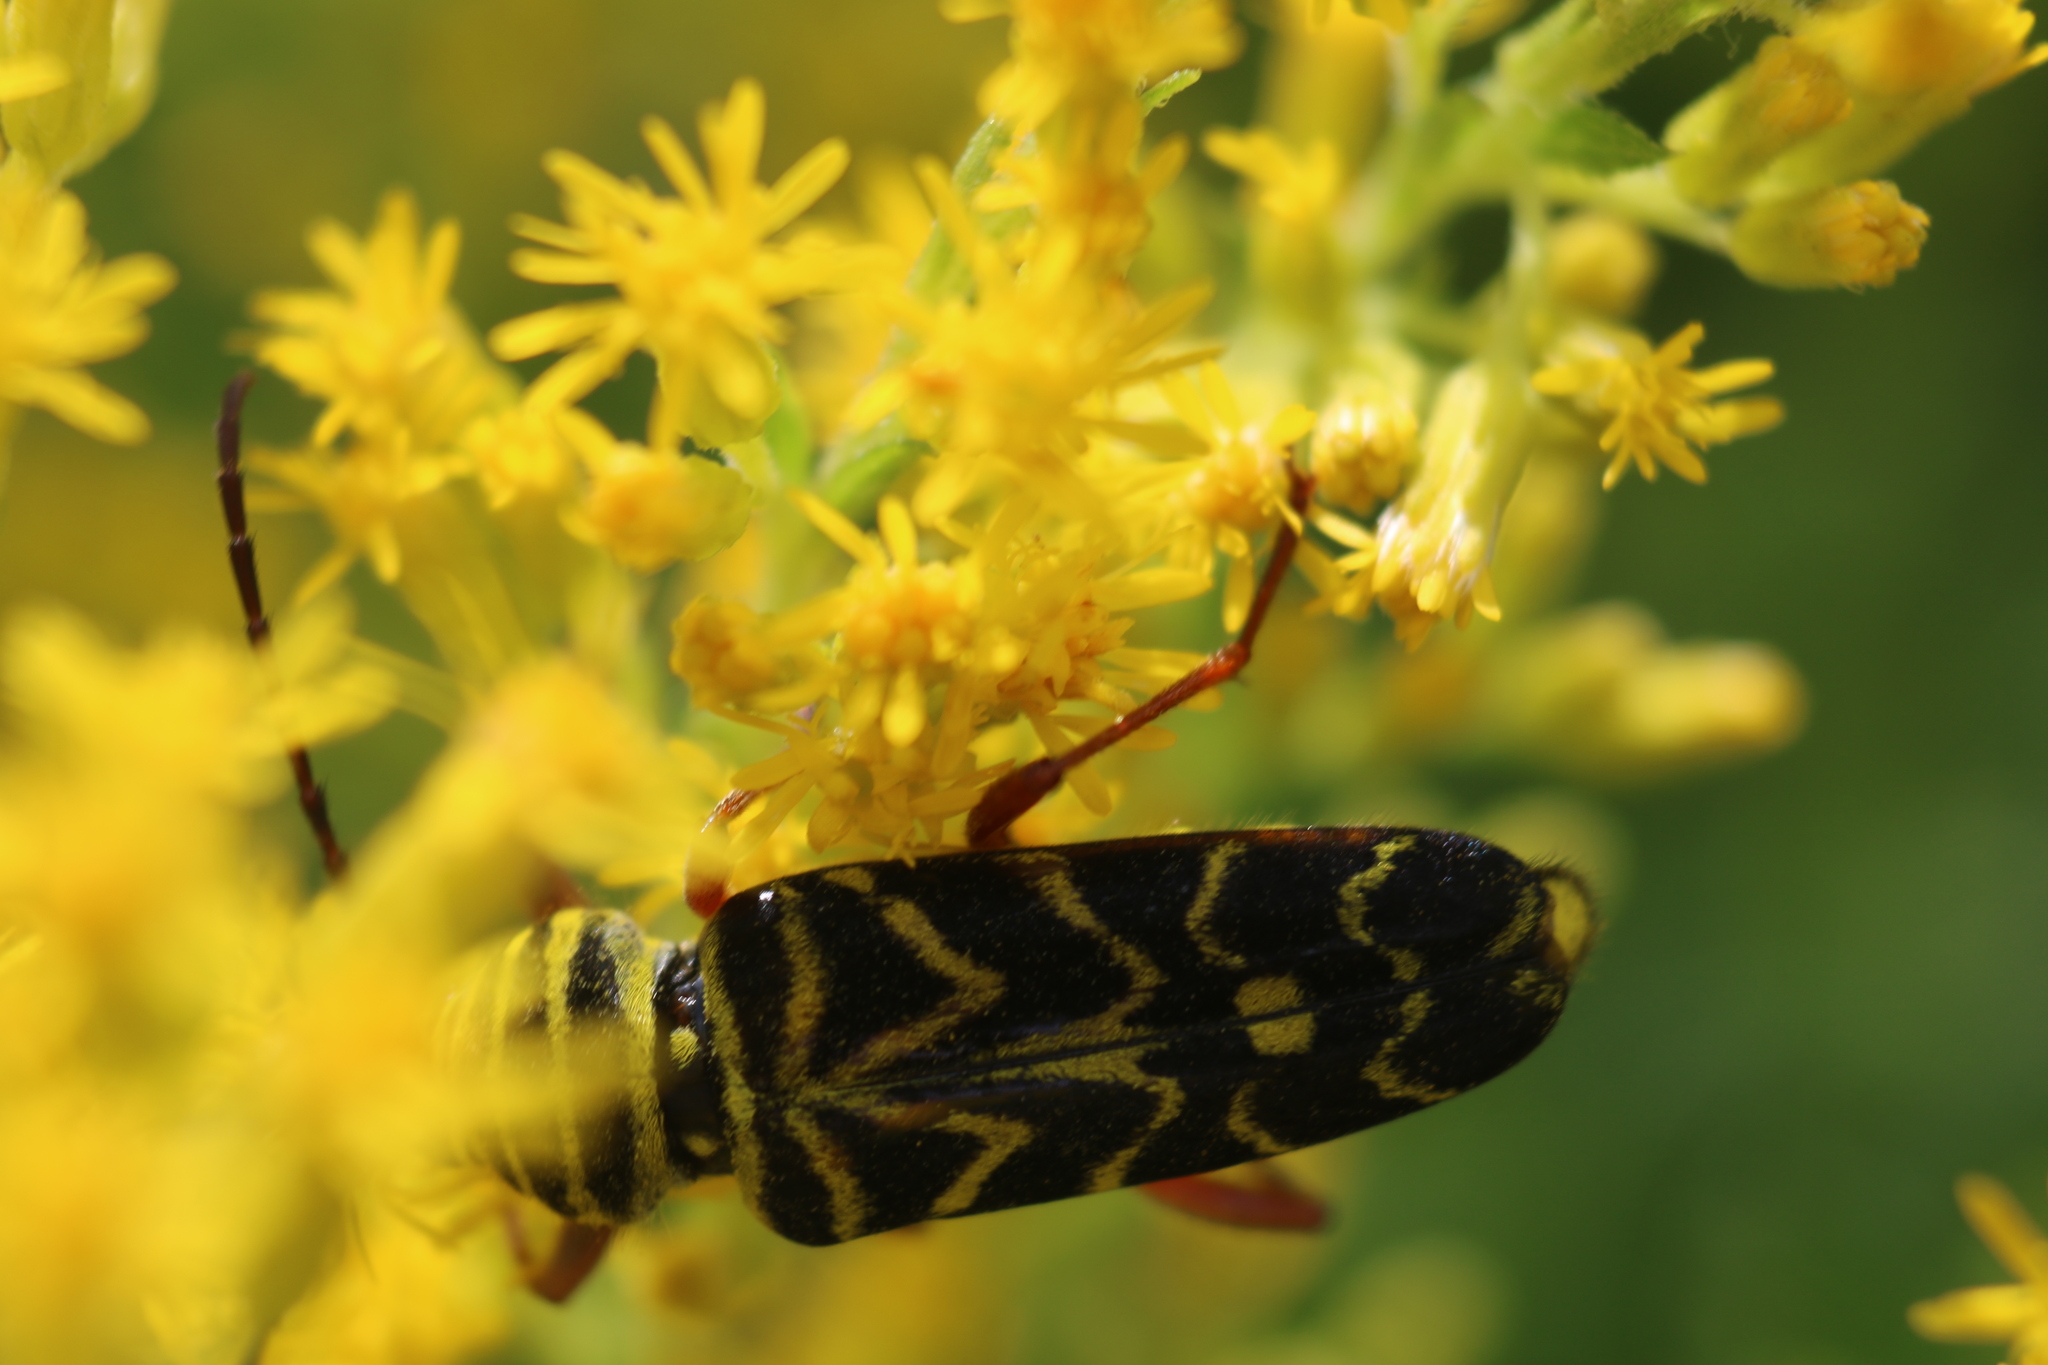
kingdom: Animalia
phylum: Arthropoda
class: Insecta
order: Coleoptera
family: Cerambycidae
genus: Megacyllene
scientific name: Megacyllene robiniae
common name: Locust borer
